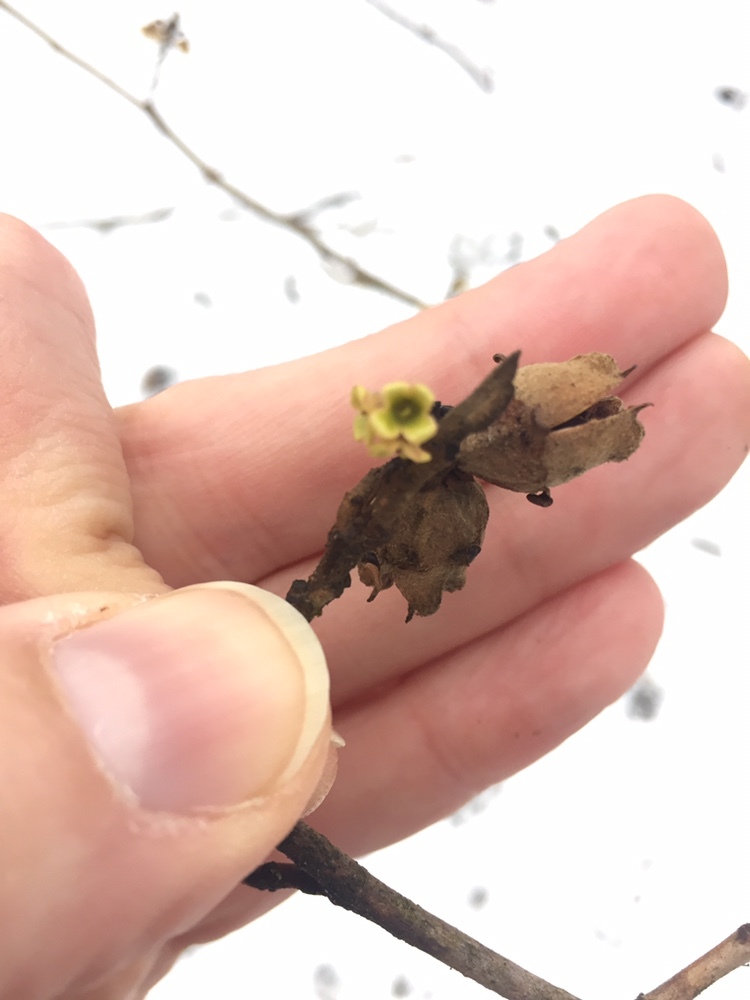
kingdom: Plantae
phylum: Tracheophyta
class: Magnoliopsida
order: Saxifragales
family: Hamamelidaceae
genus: Hamamelis
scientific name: Hamamelis virginiana
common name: Witch-hazel
